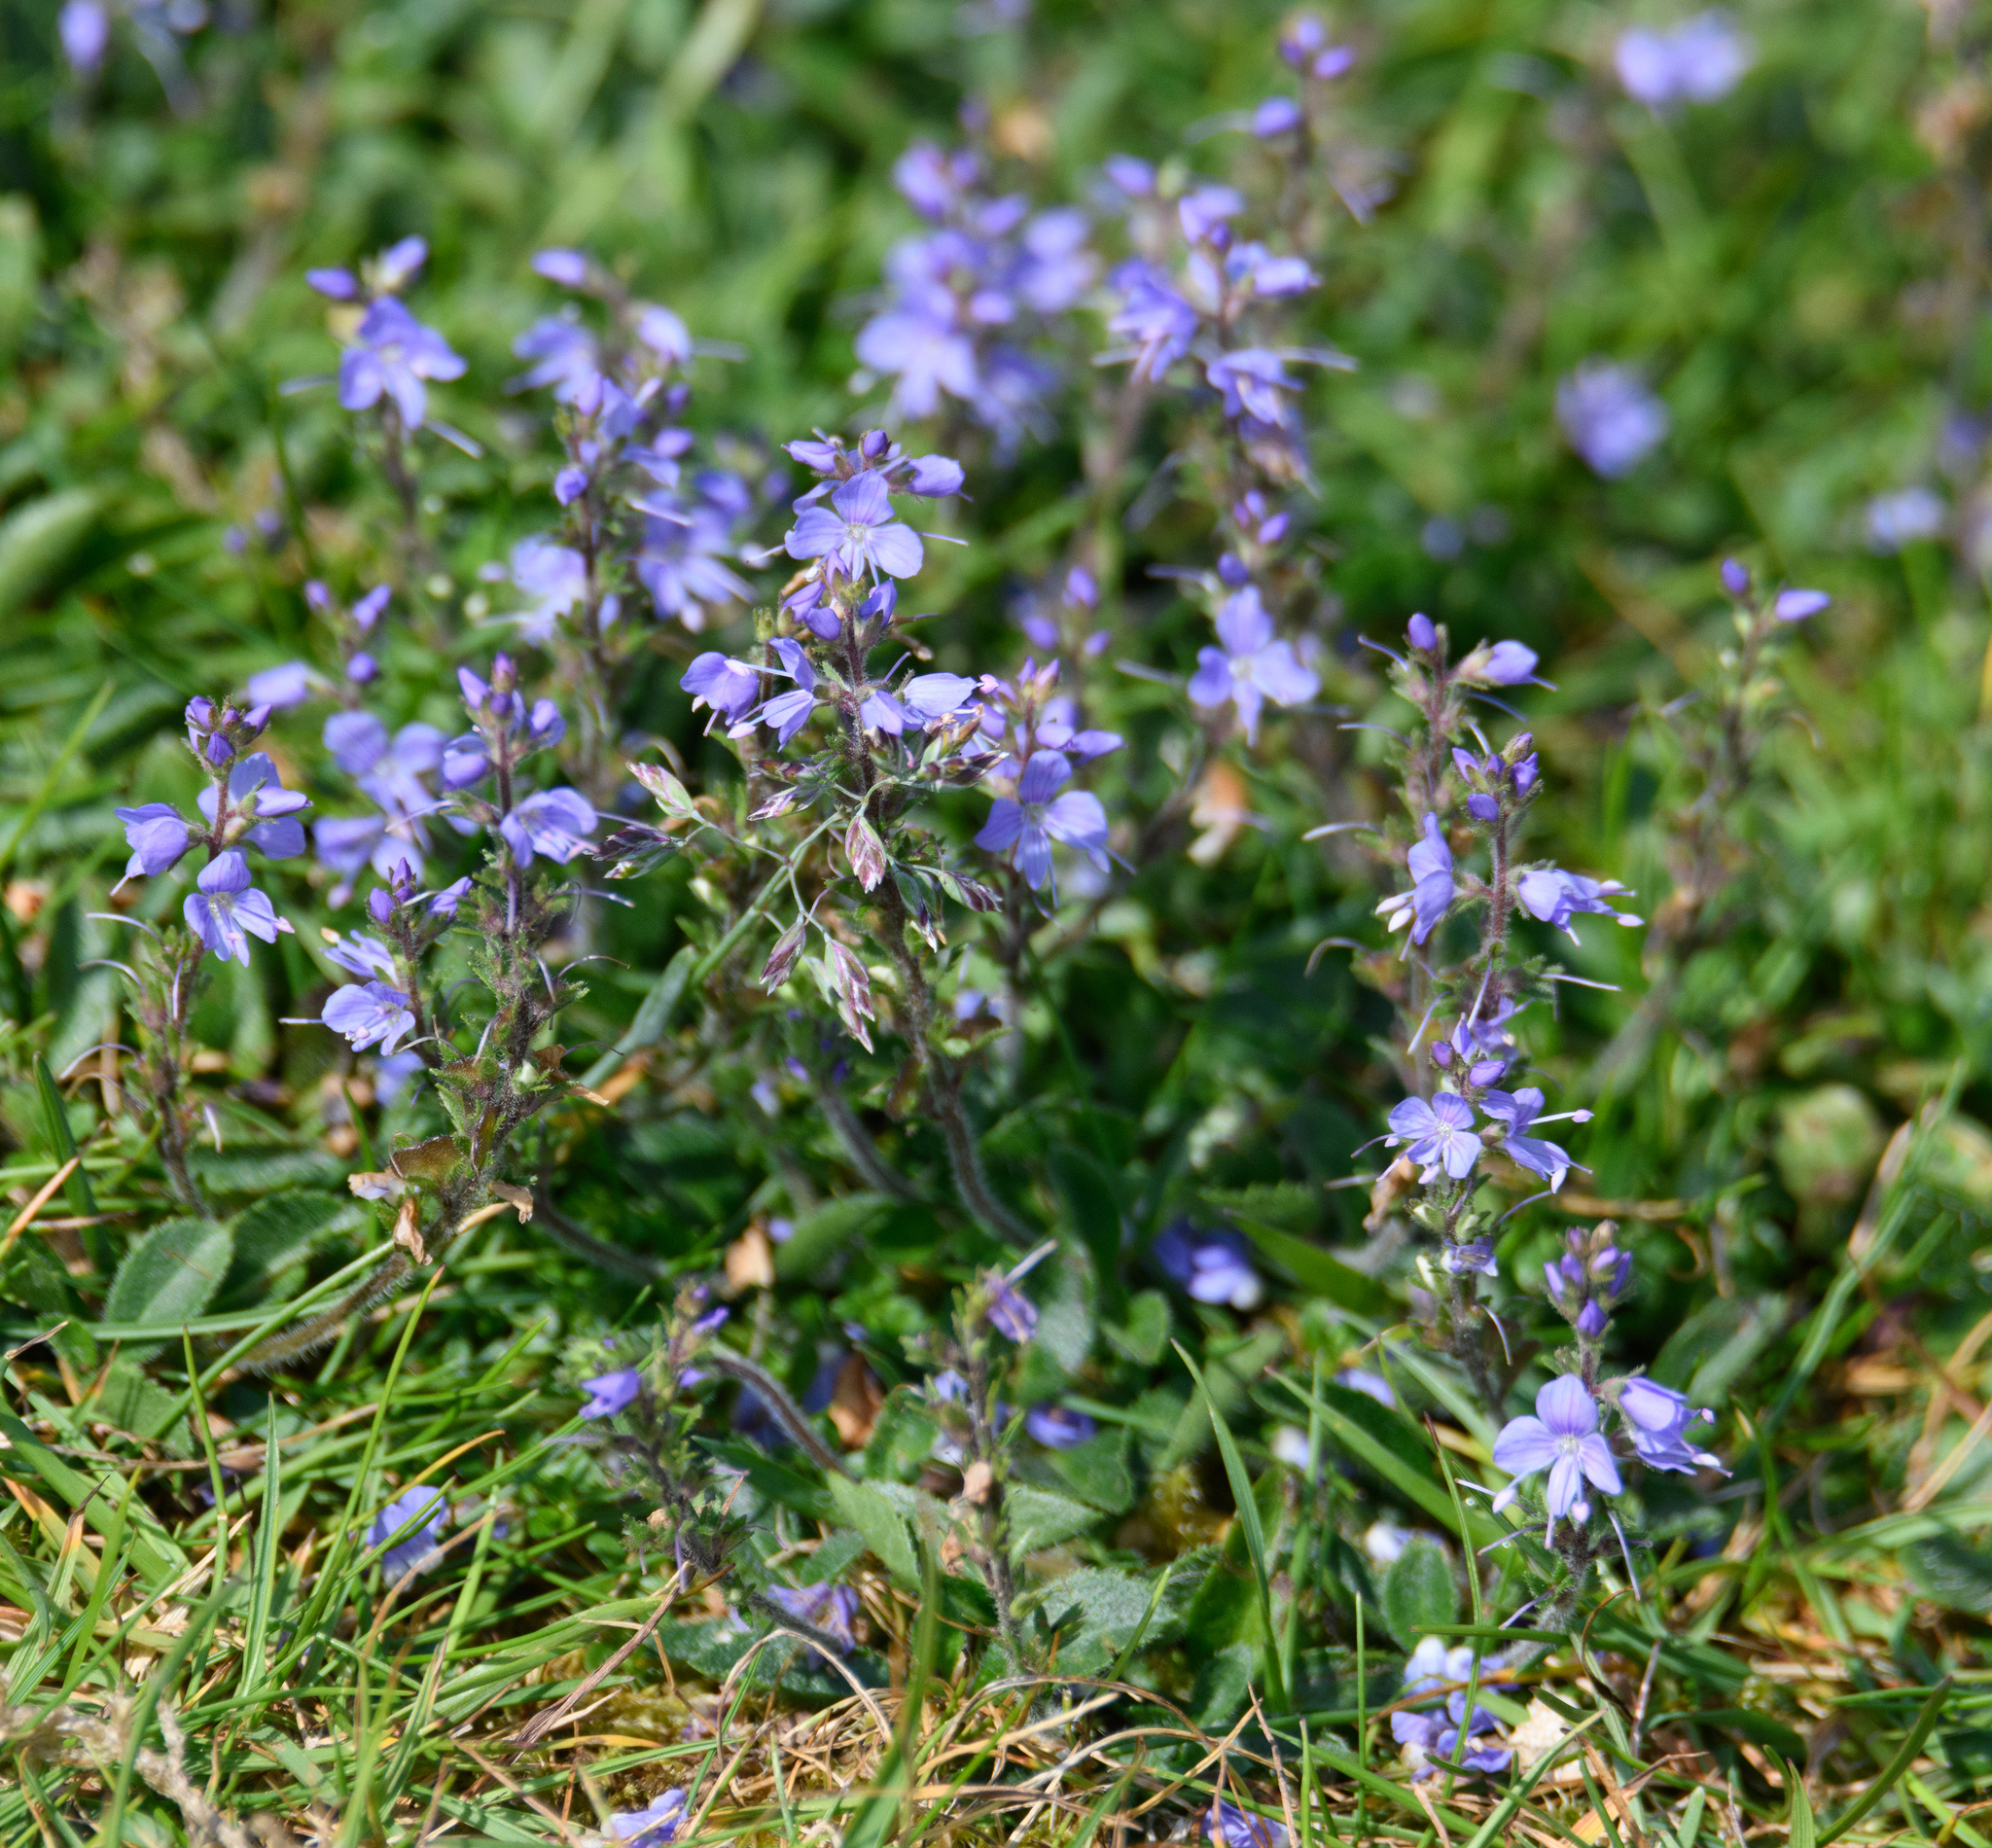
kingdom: Plantae
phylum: Tracheophyta
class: Magnoliopsida
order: Lamiales
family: Plantaginaceae
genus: Veronica
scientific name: Veronica officinalis
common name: Common speedwell
